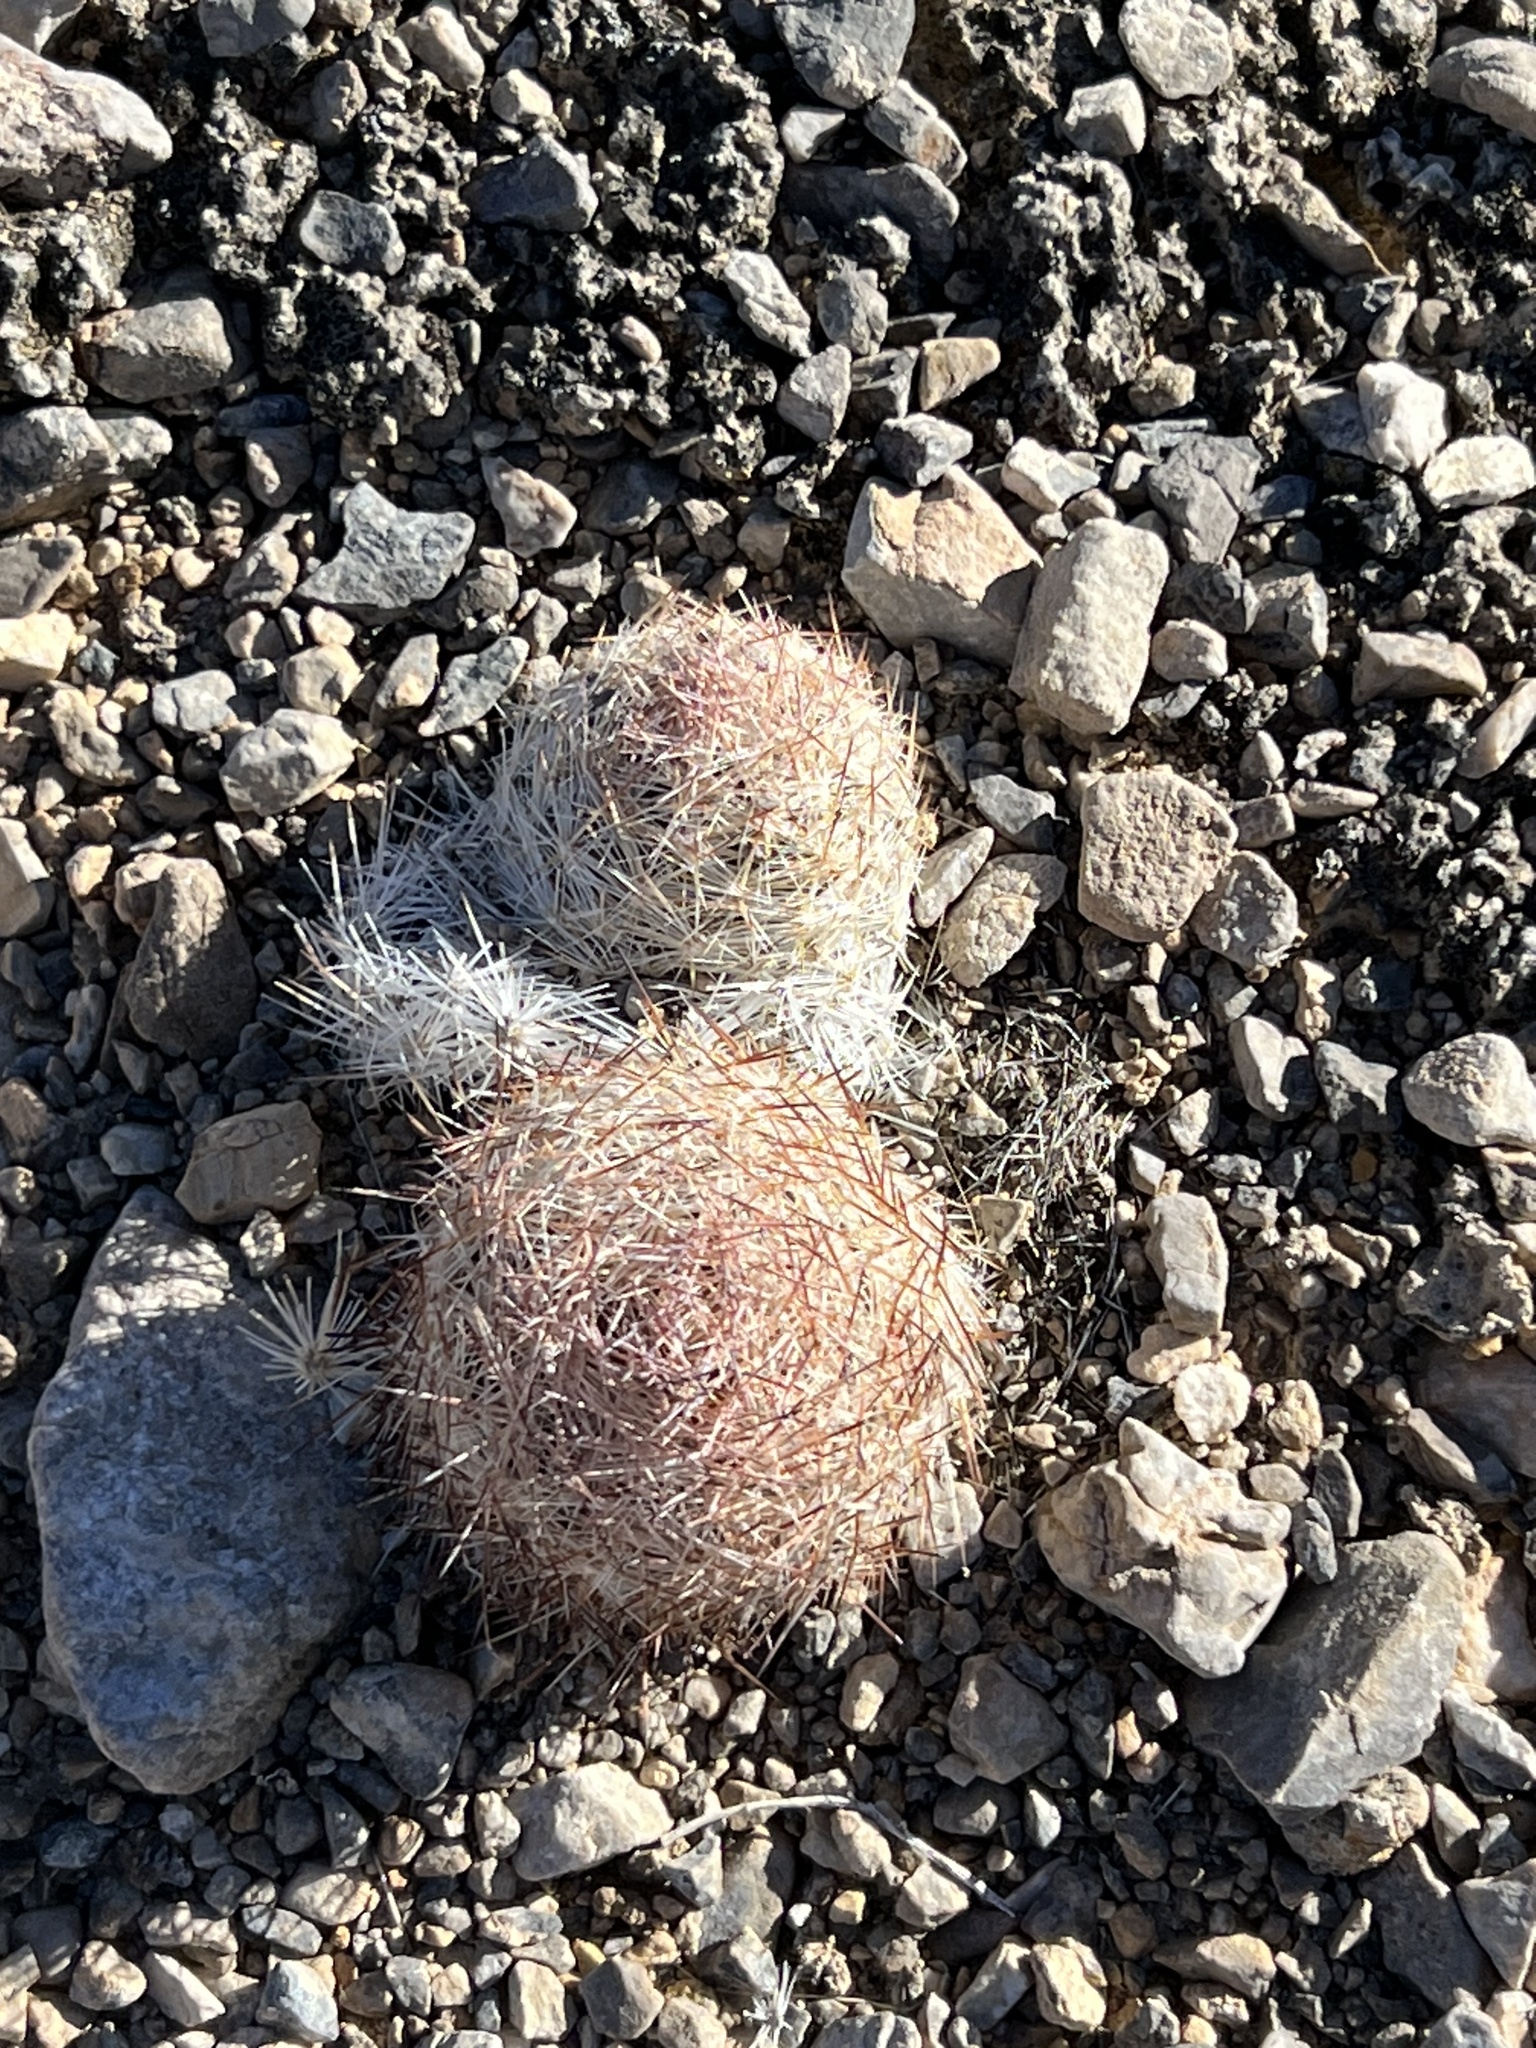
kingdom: Plantae
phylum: Tracheophyta
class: Magnoliopsida
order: Caryophyllales
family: Cactaceae
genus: Pelecyphora
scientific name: Pelecyphora dasyacantha
